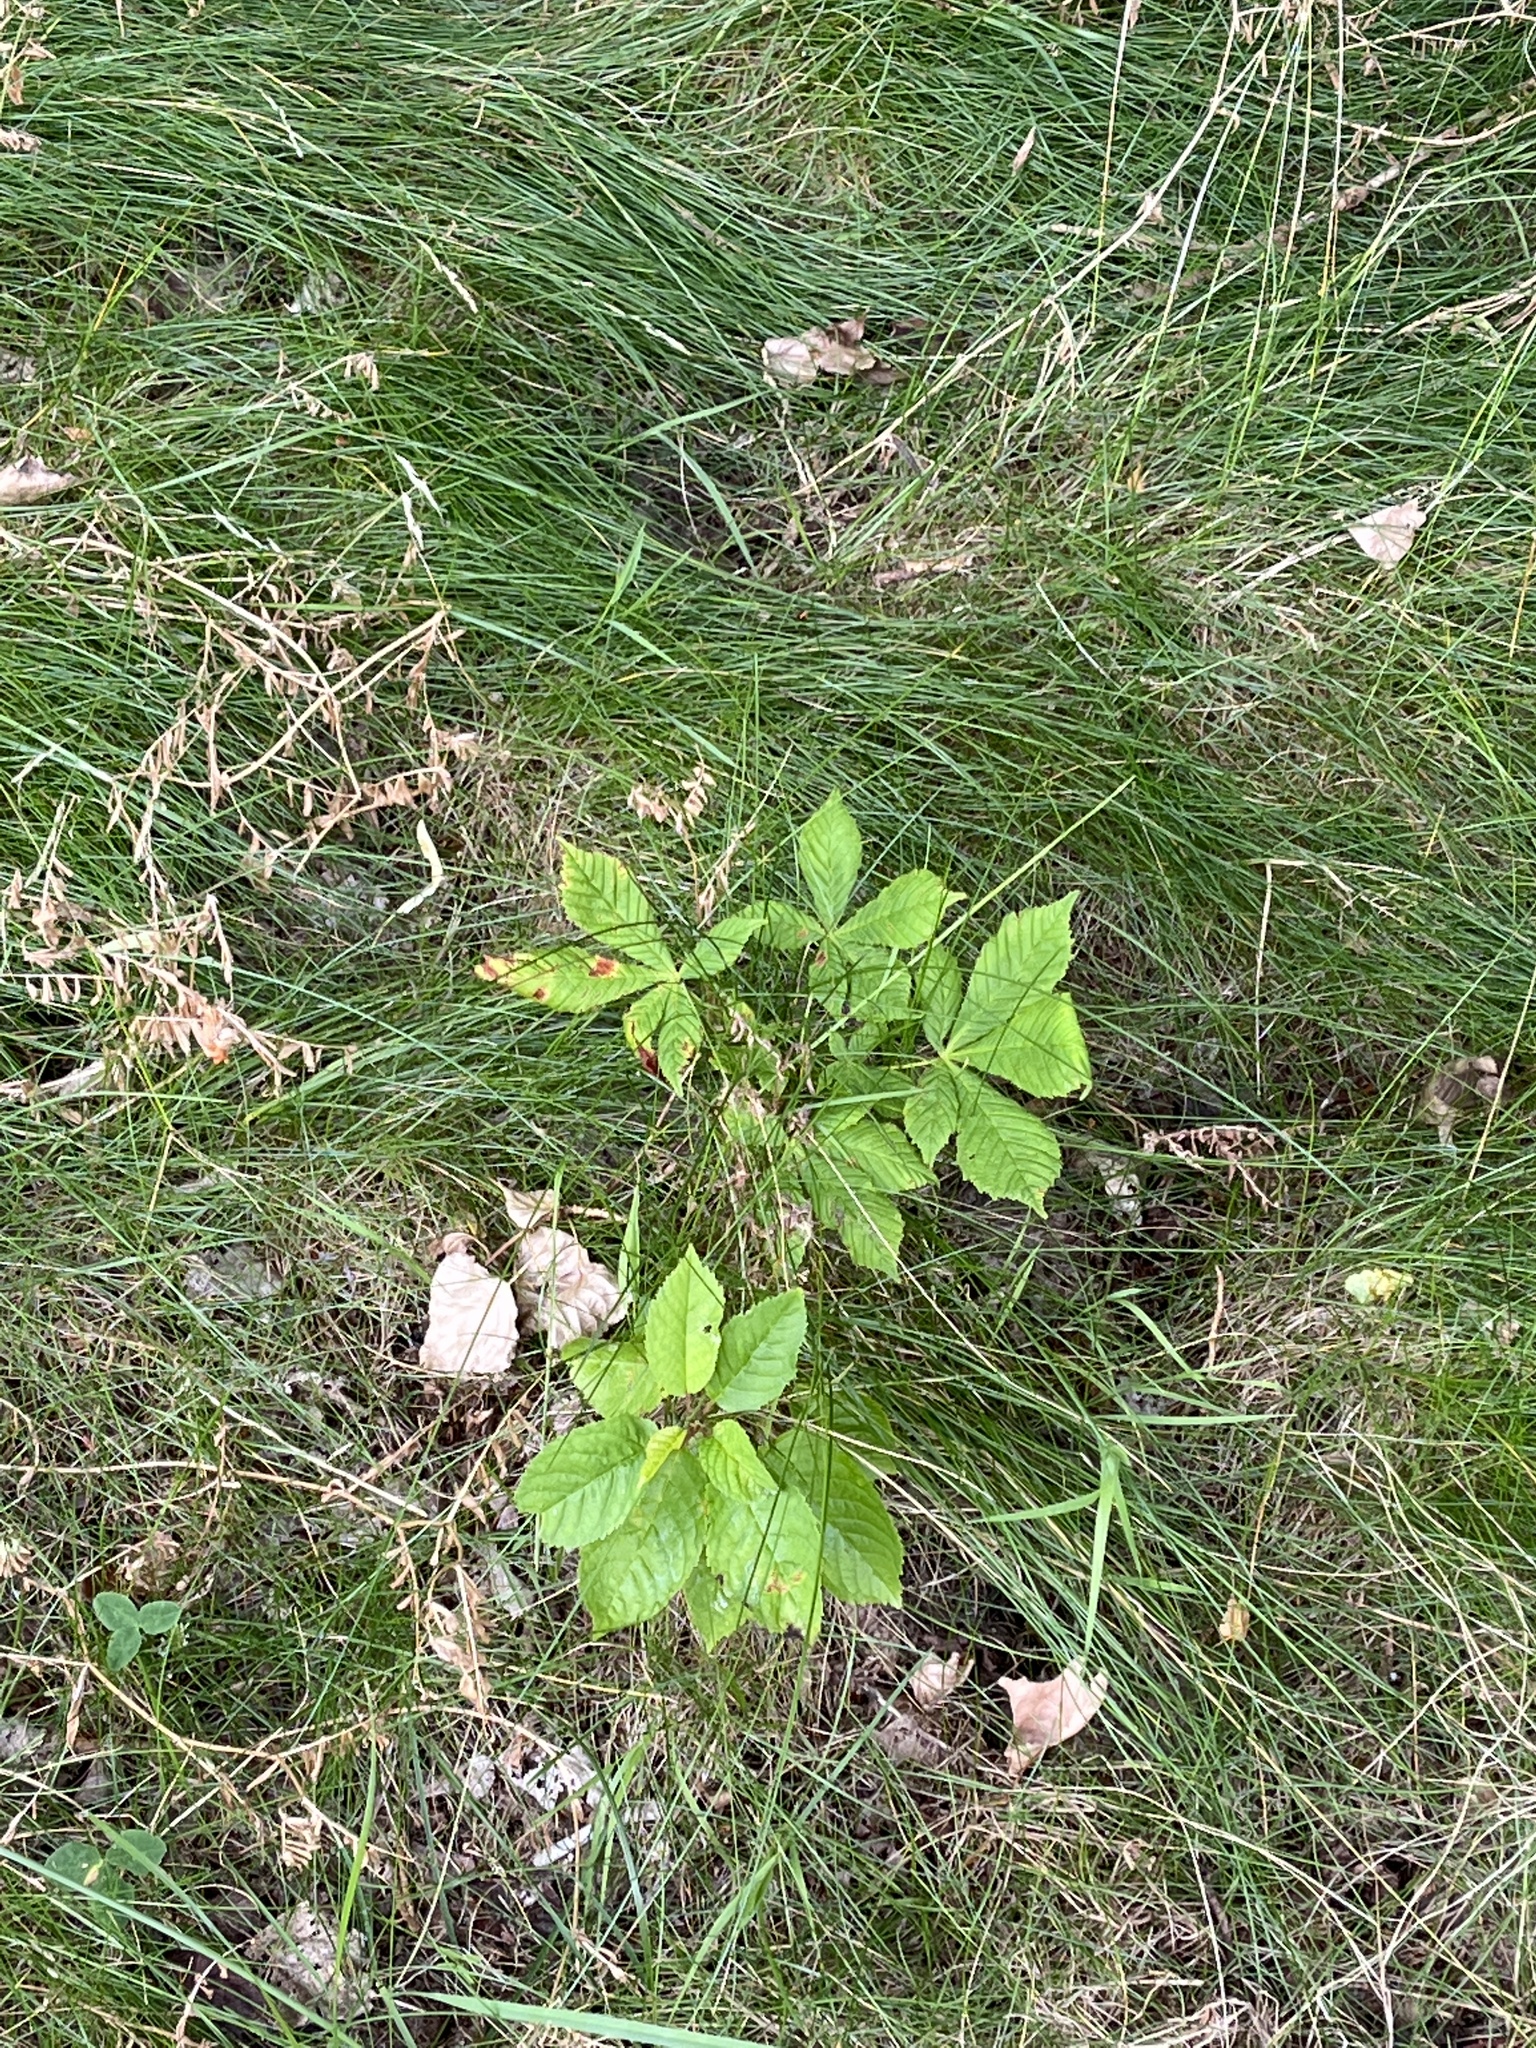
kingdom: Plantae
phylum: Tracheophyta
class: Magnoliopsida
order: Sapindales
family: Sapindaceae
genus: Aesculus
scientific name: Aesculus hippocastanum
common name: Horse-chestnut
